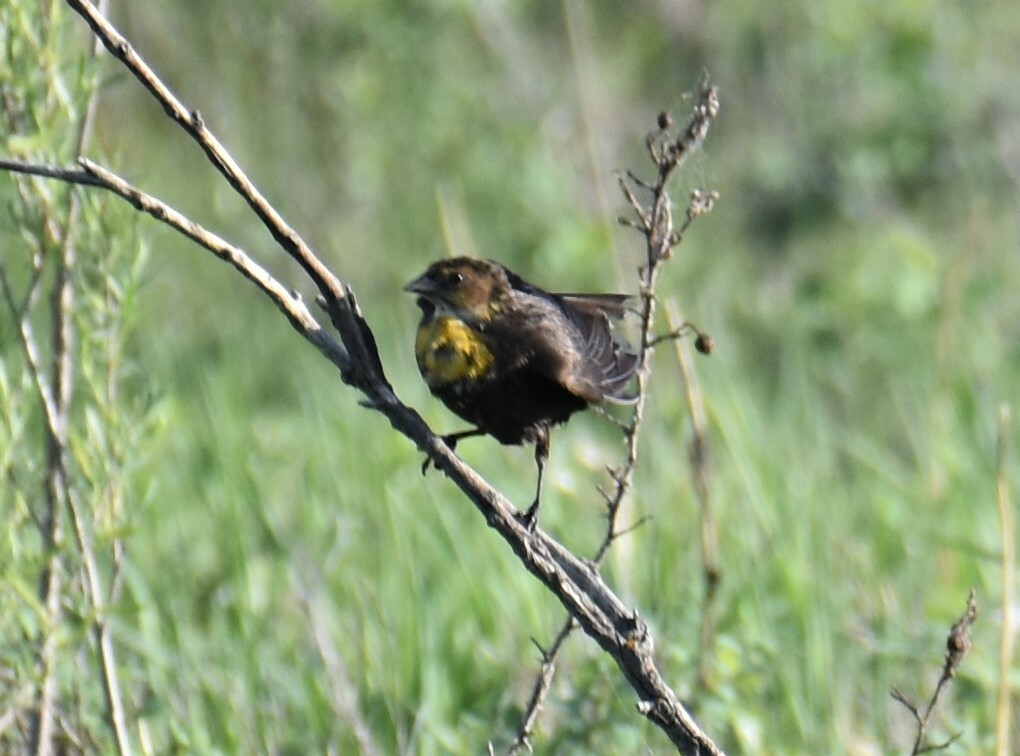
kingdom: Animalia
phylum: Chordata
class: Aves
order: Passeriformes
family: Icteridae
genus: Xanthocephalus
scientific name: Xanthocephalus xanthocephalus
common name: Yellow-headed blackbird
